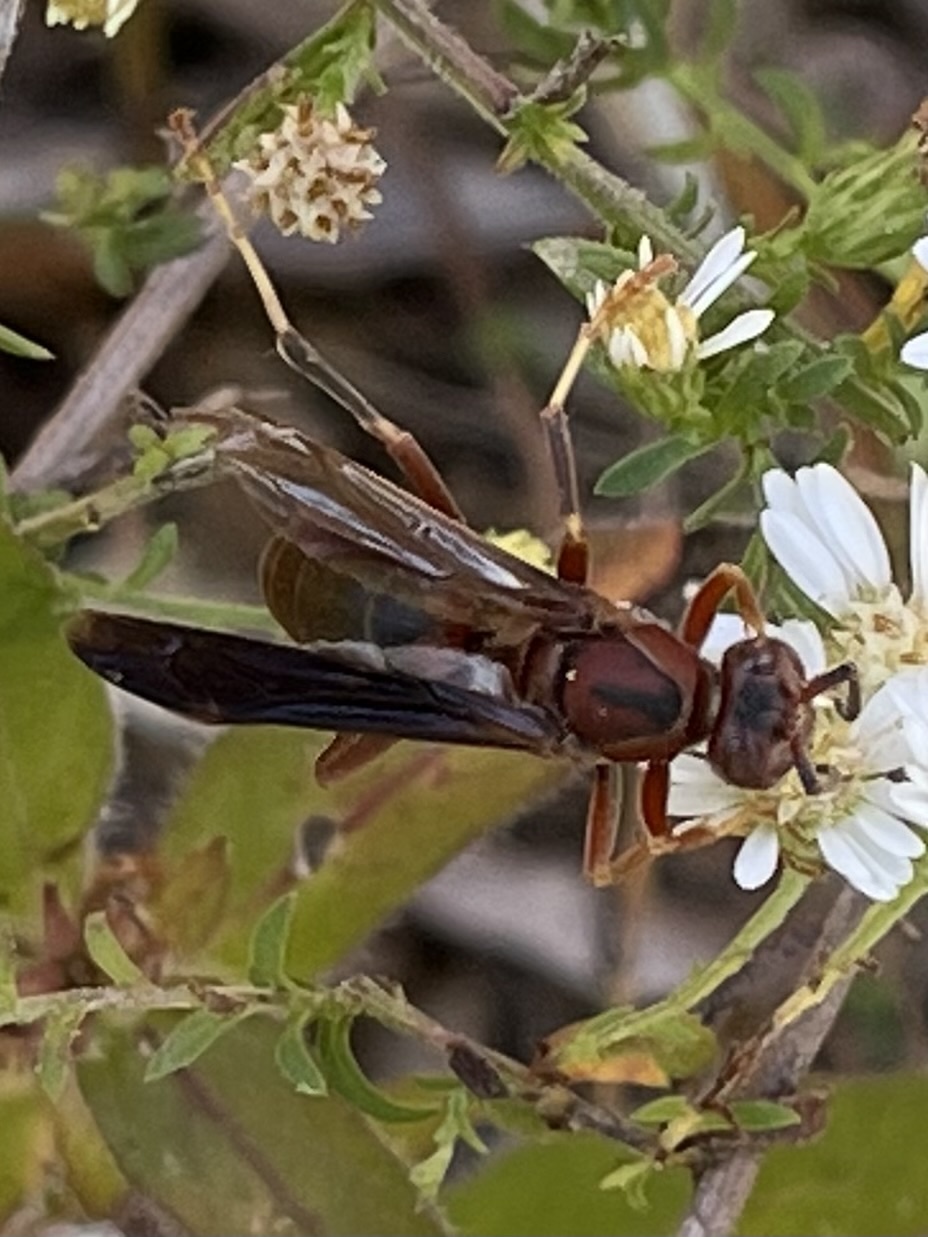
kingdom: Animalia
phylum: Arthropoda
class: Insecta
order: Hymenoptera
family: Eumenidae
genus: Polistes
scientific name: Polistes metricus
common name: Metric paper wasp
